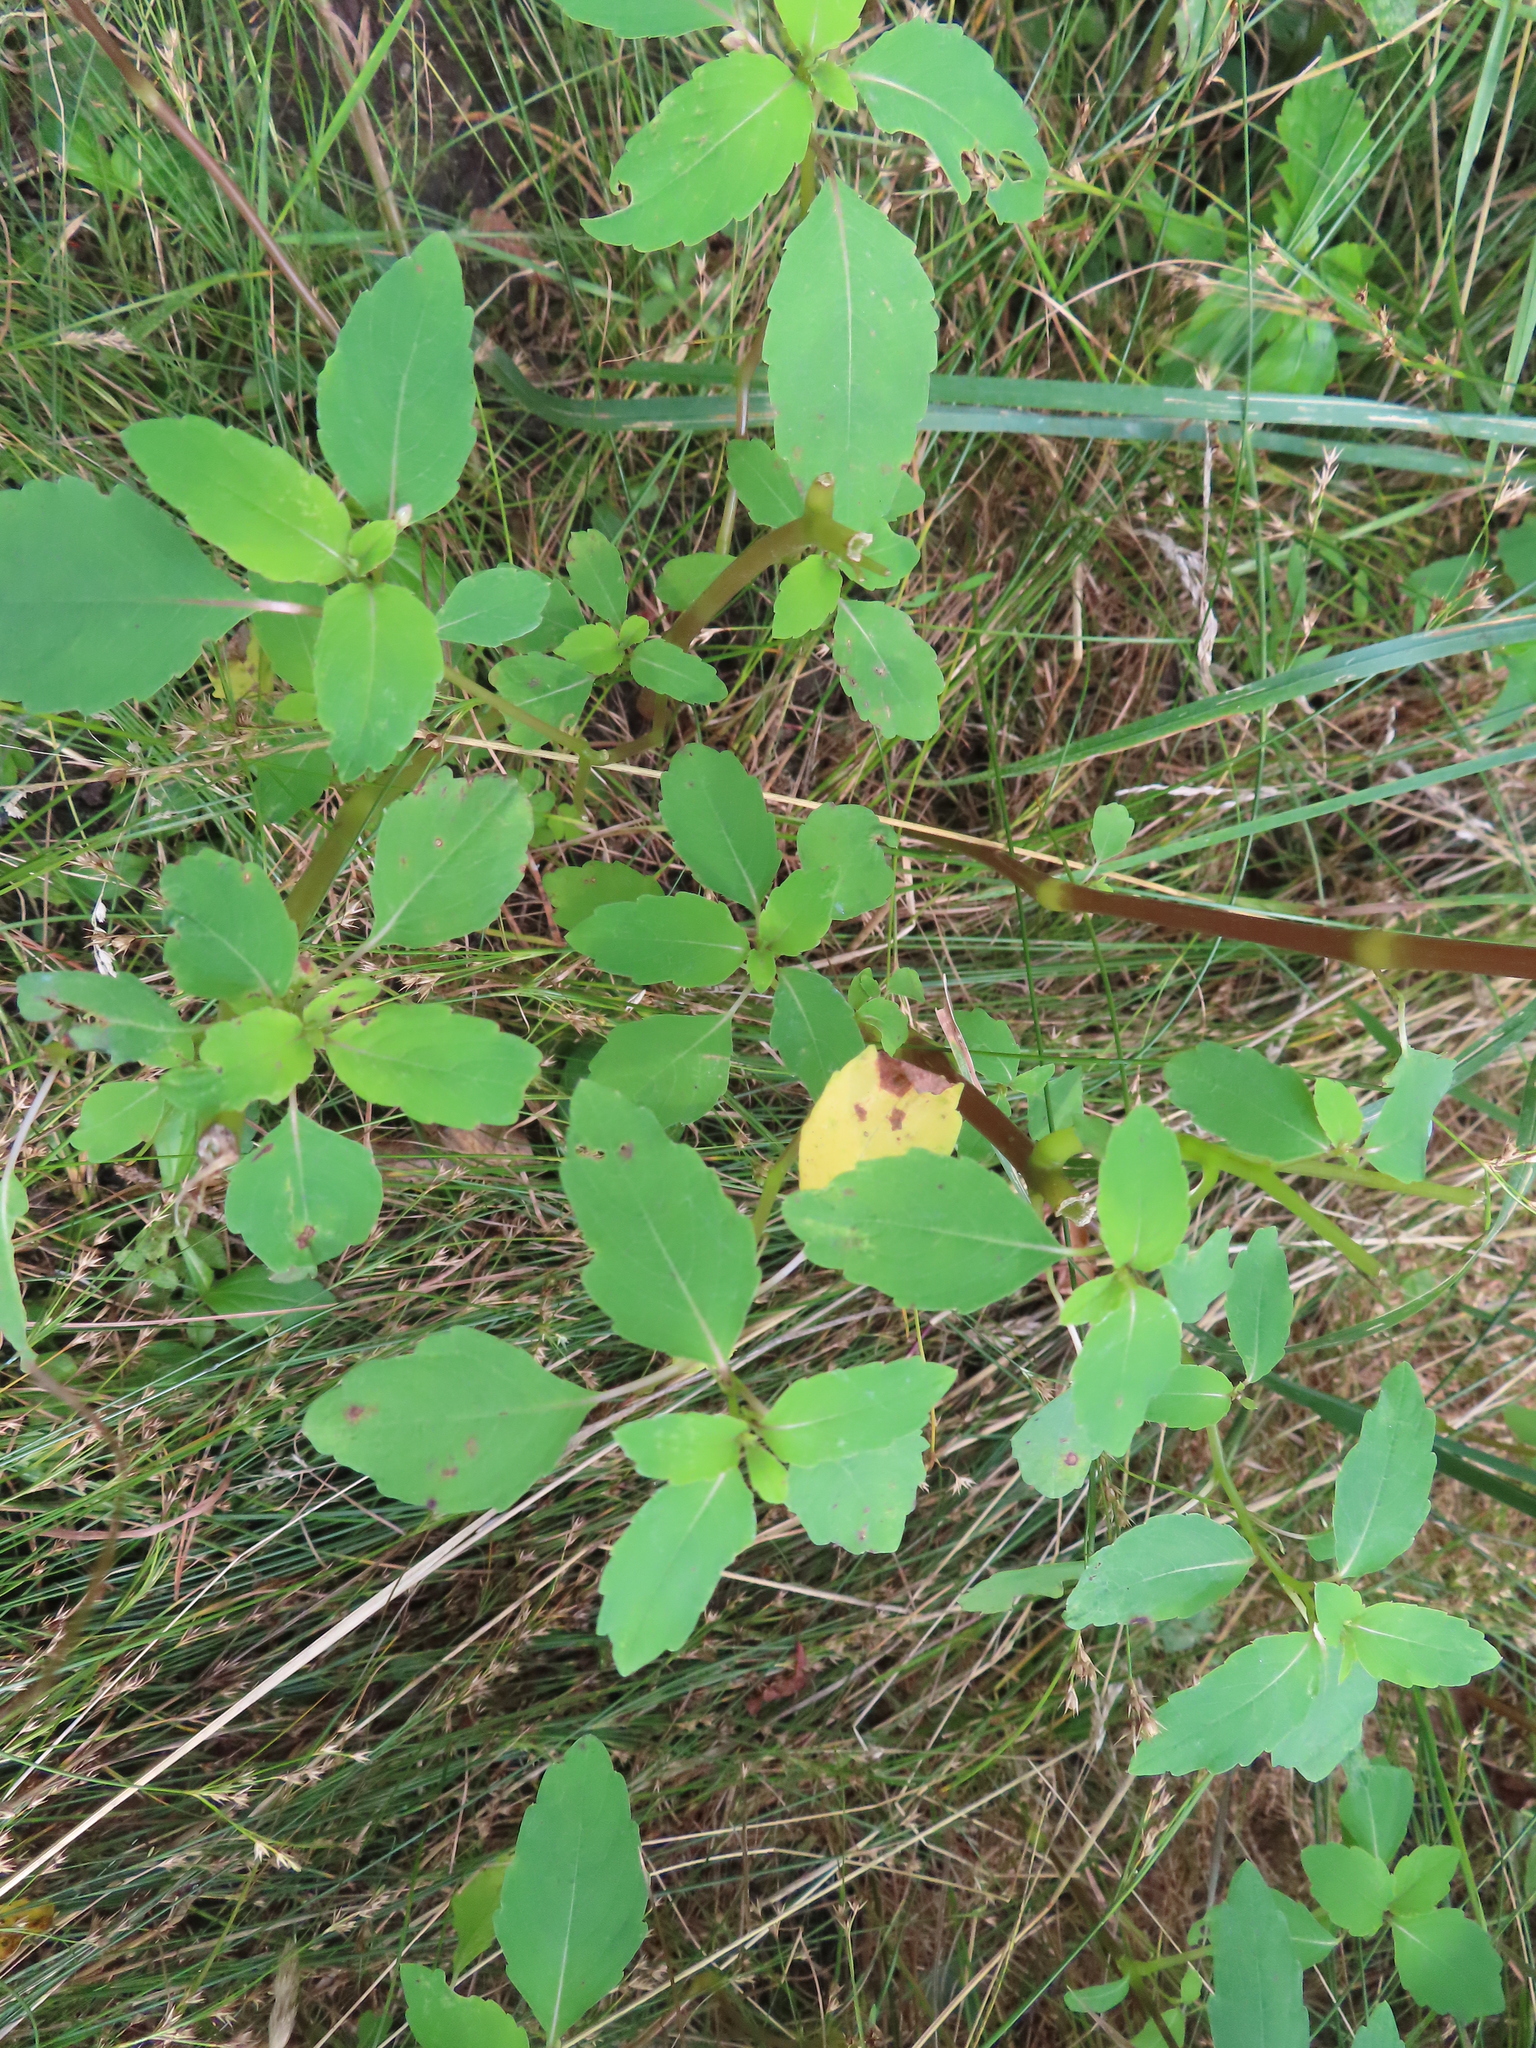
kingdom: Plantae
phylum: Tracheophyta
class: Magnoliopsida
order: Ericales
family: Balsaminaceae
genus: Impatiens
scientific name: Impatiens capensis
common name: Orange balsam
